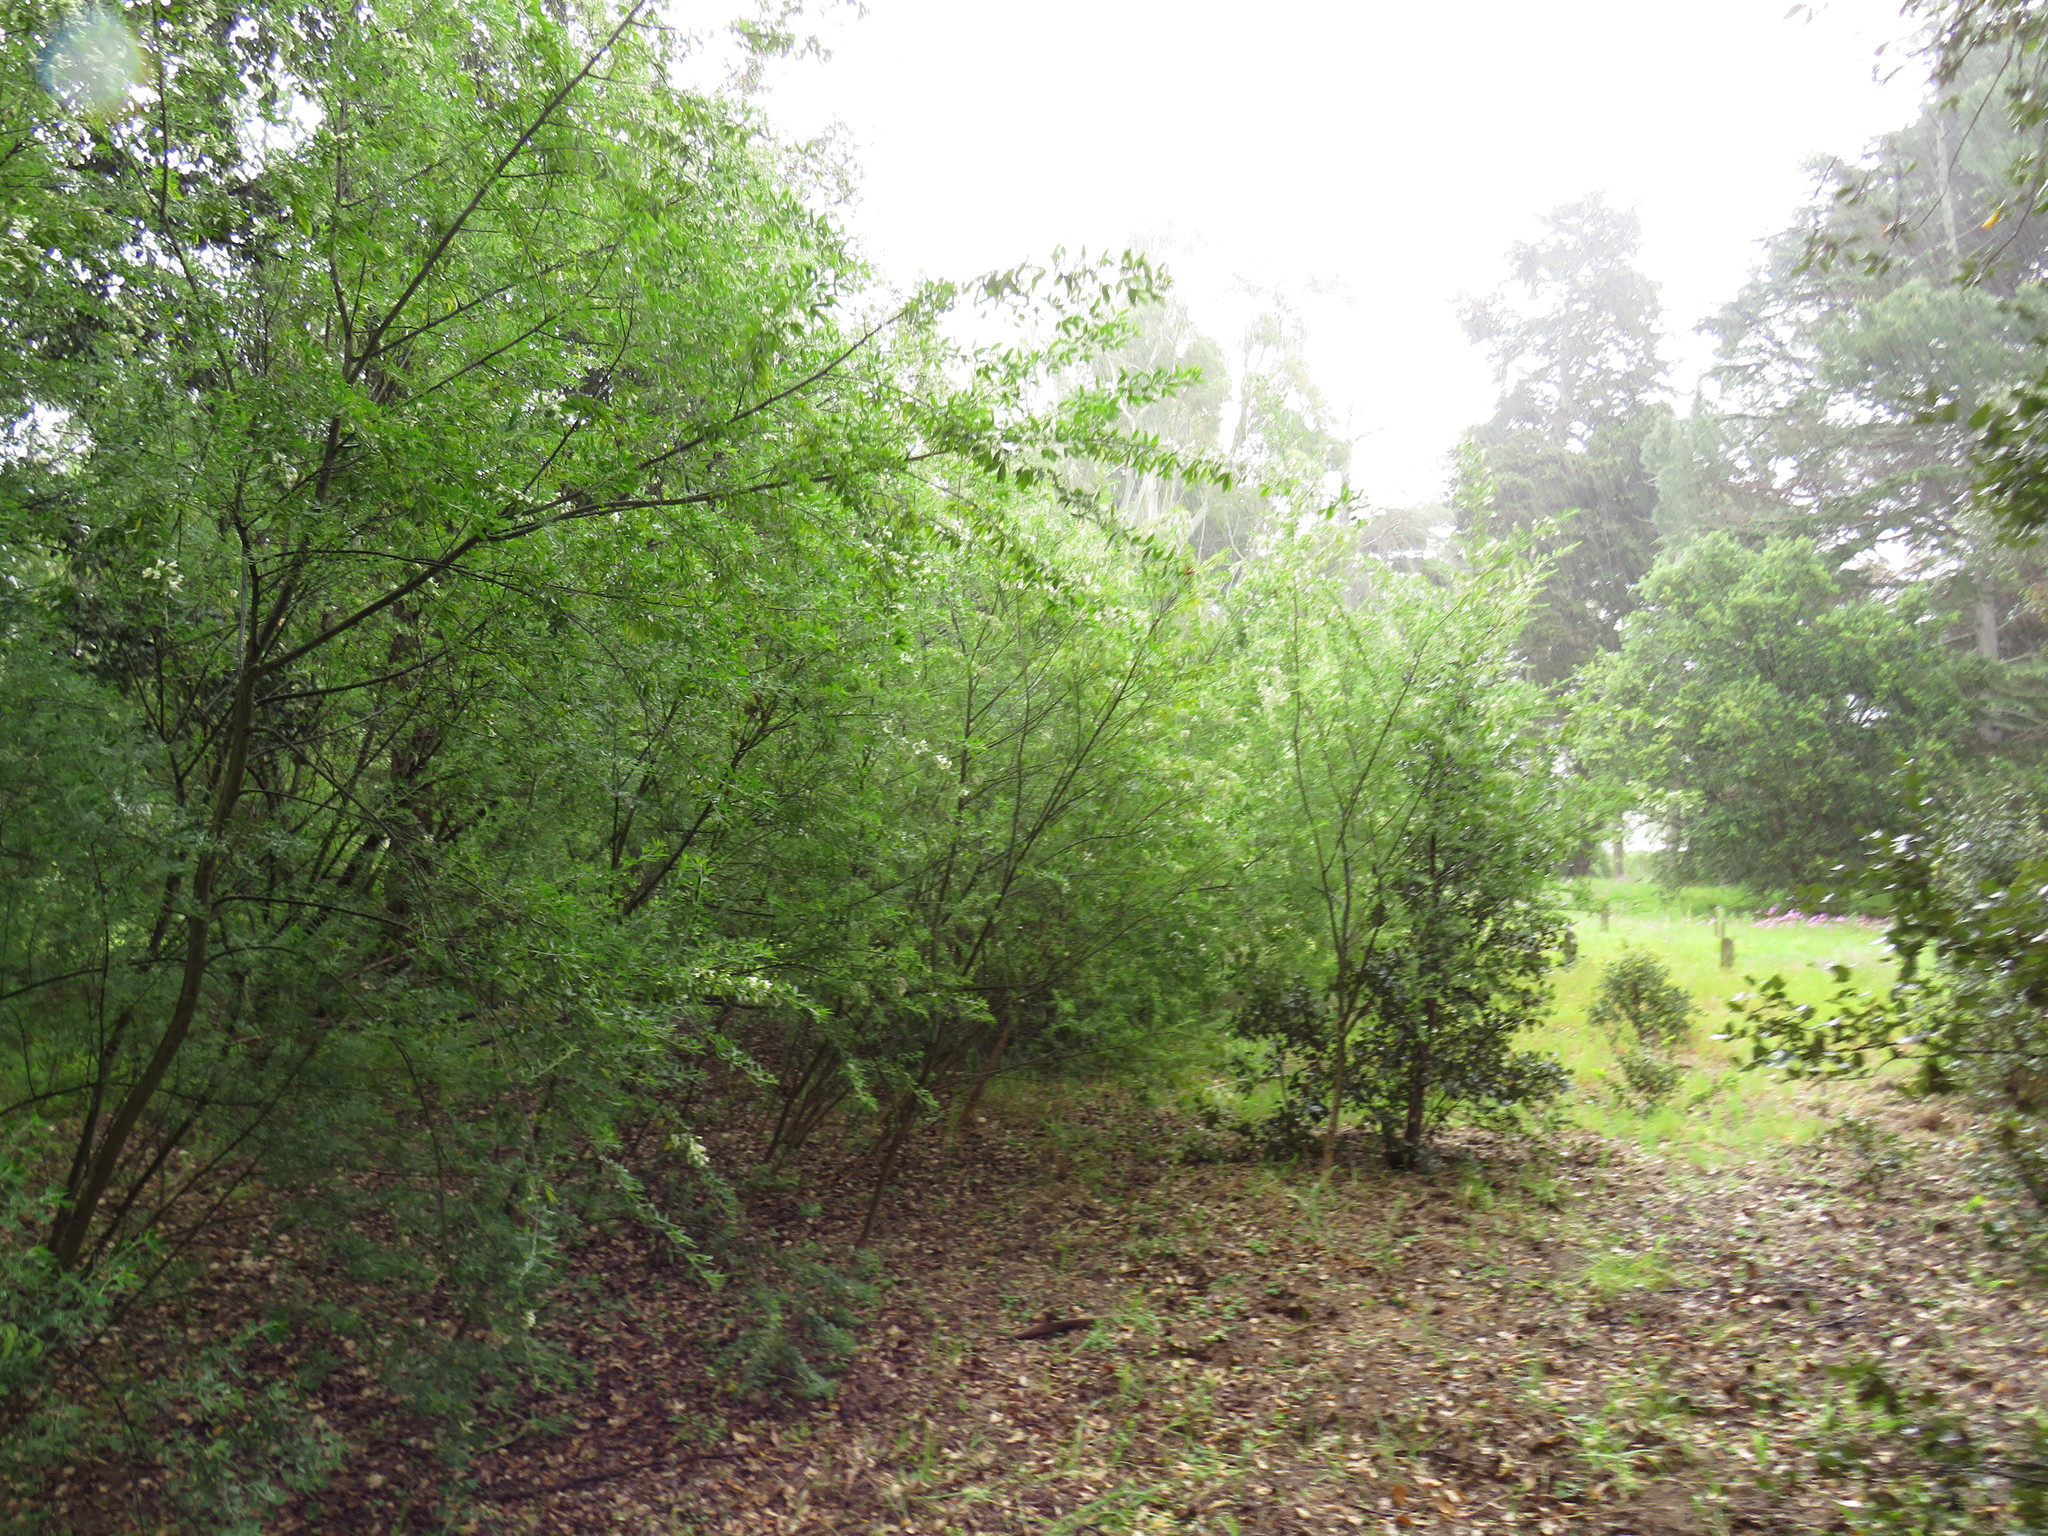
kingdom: Plantae
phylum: Tracheophyta
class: Magnoliopsida
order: Fabales
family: Fabaceae
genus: Chamaecytisus
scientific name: Chamaecytisus prolifer
